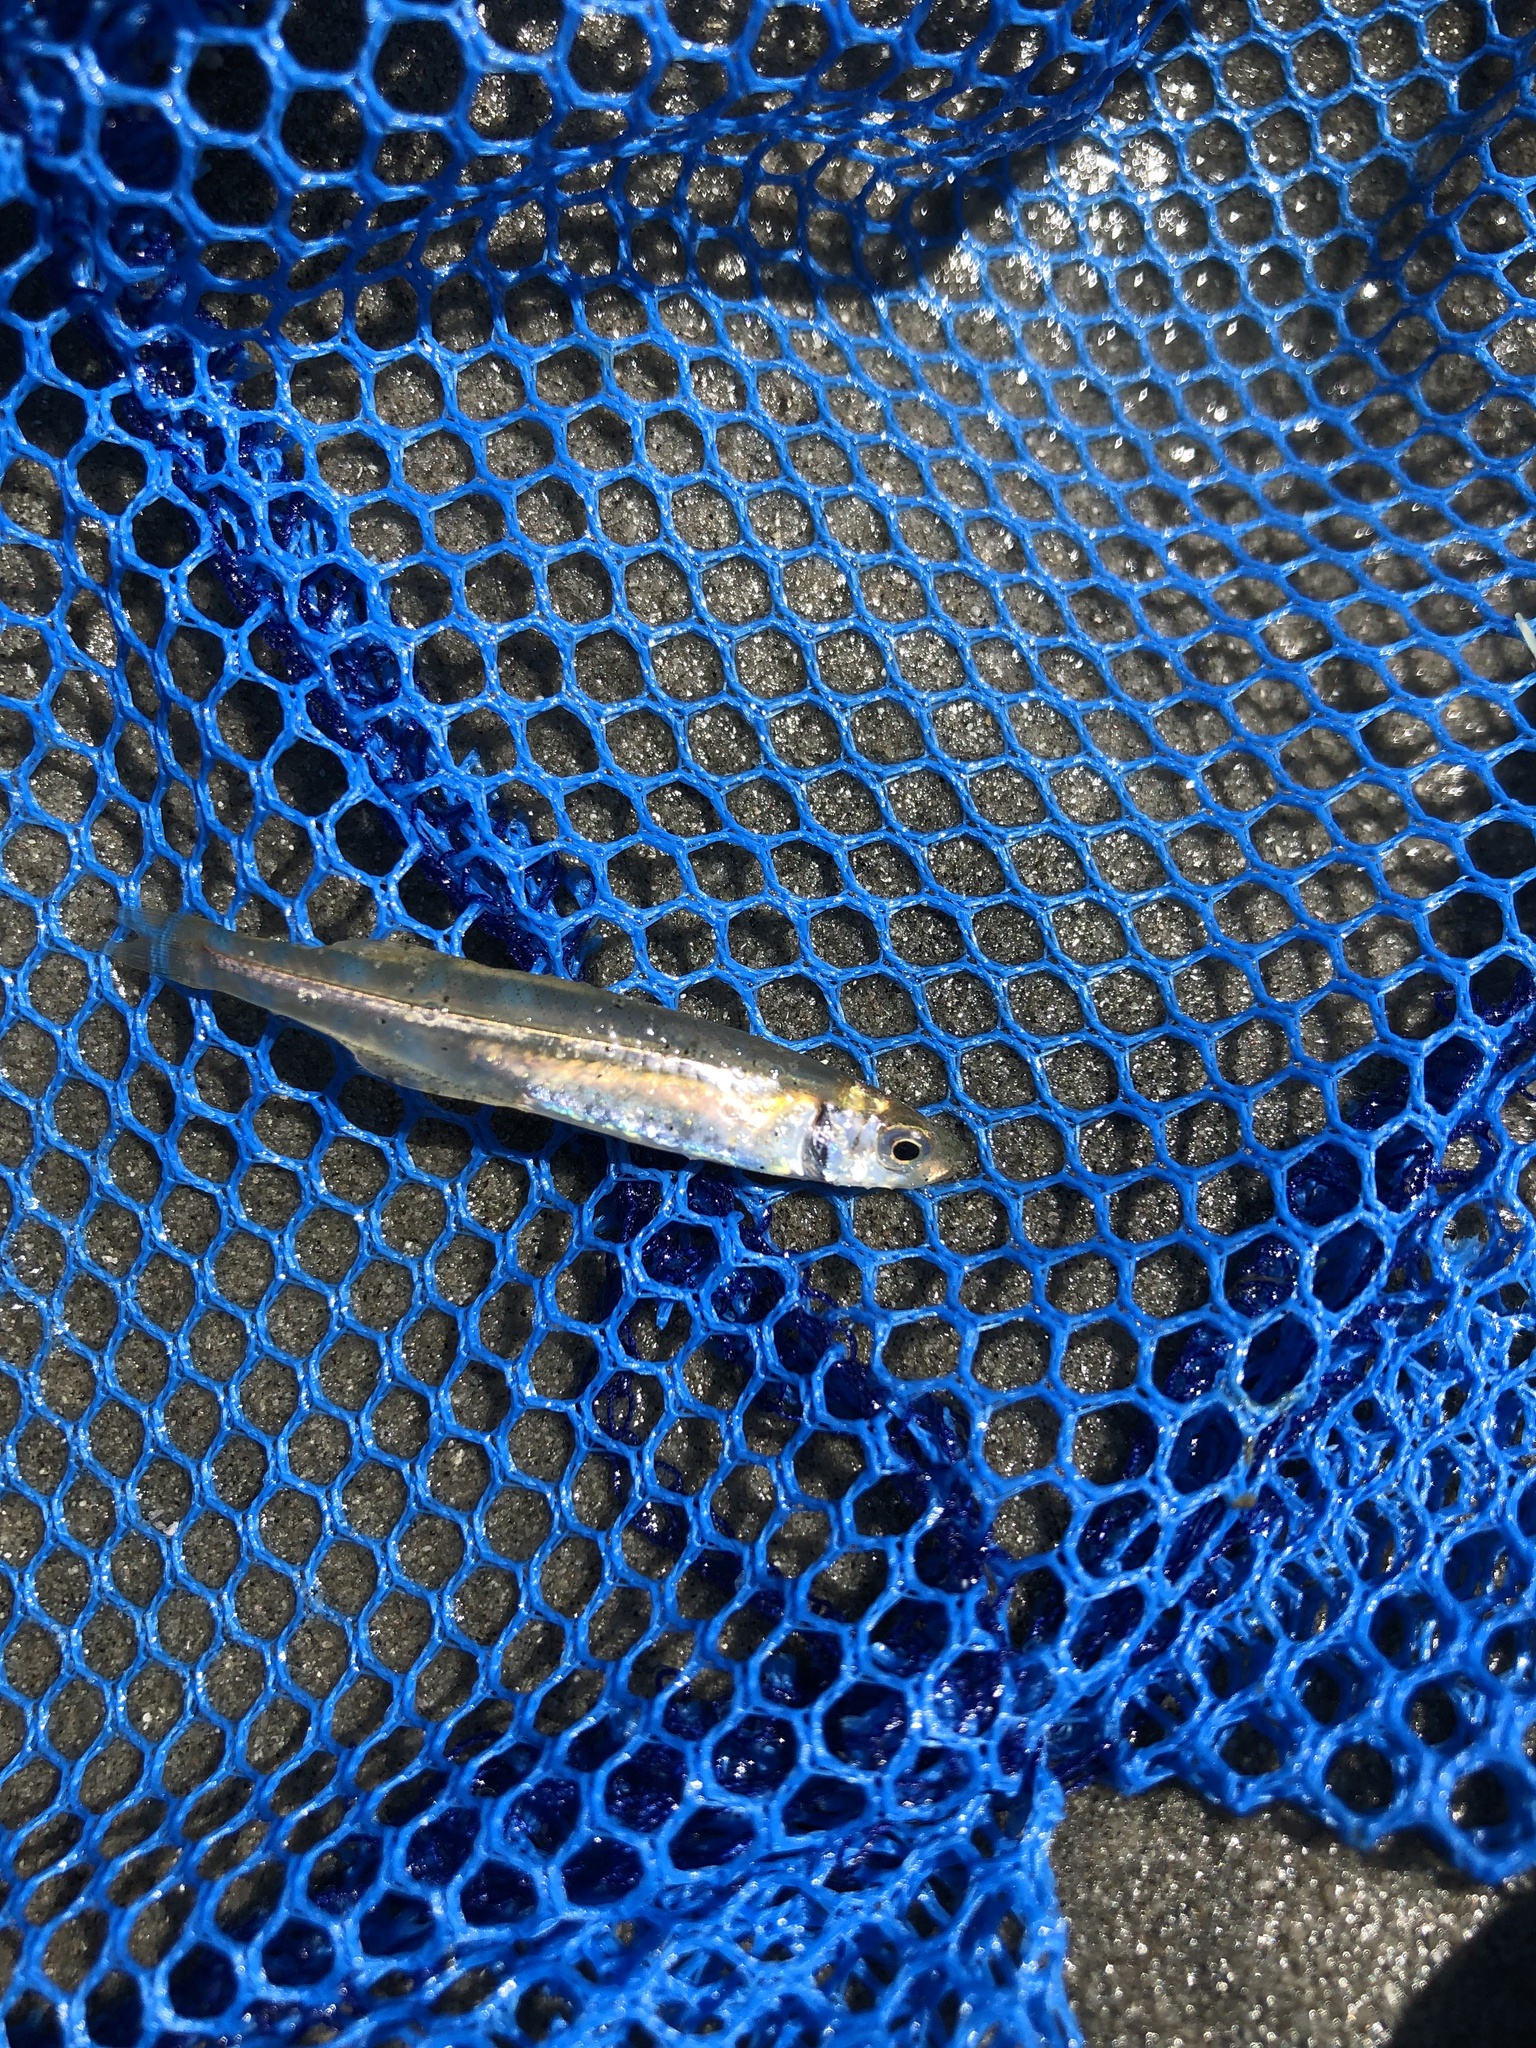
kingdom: Animalia
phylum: Chordata
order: Atheriniformes
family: Atherinopsidae
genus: Menidia
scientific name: Menidia menidia
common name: Atlantic silverside
